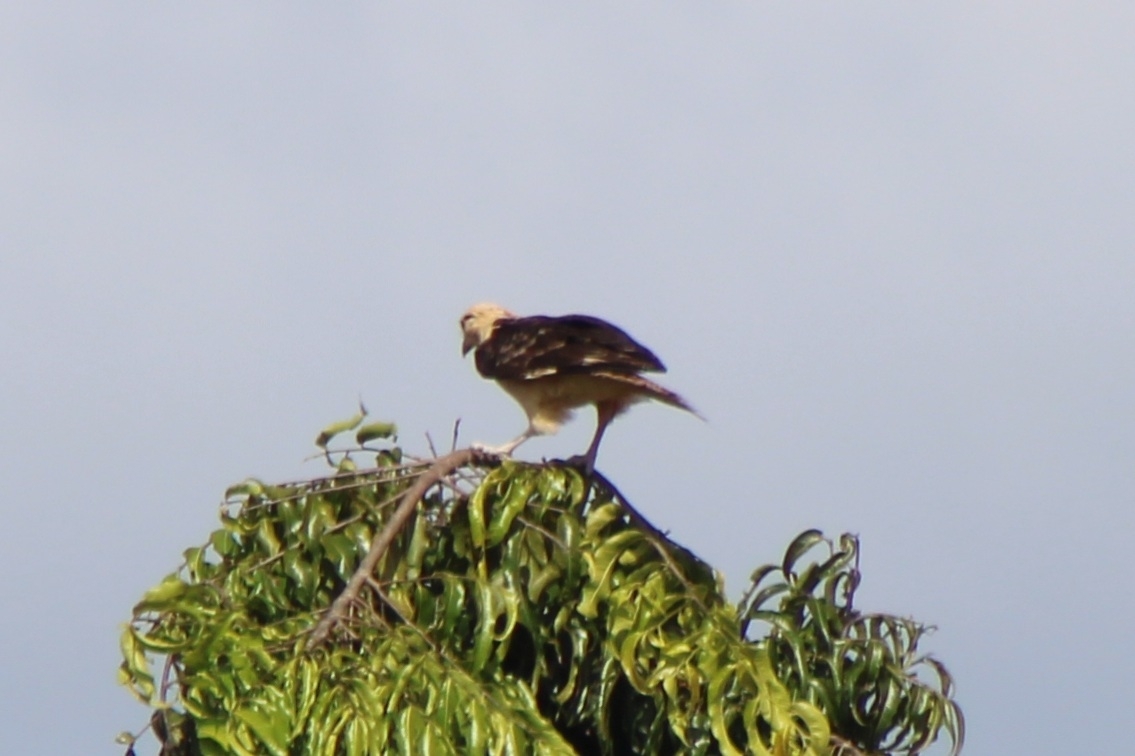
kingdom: Animalia
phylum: Chordata
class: Aves
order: Falconiformes
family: Falconidae
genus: Daptrius
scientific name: Daptrius
